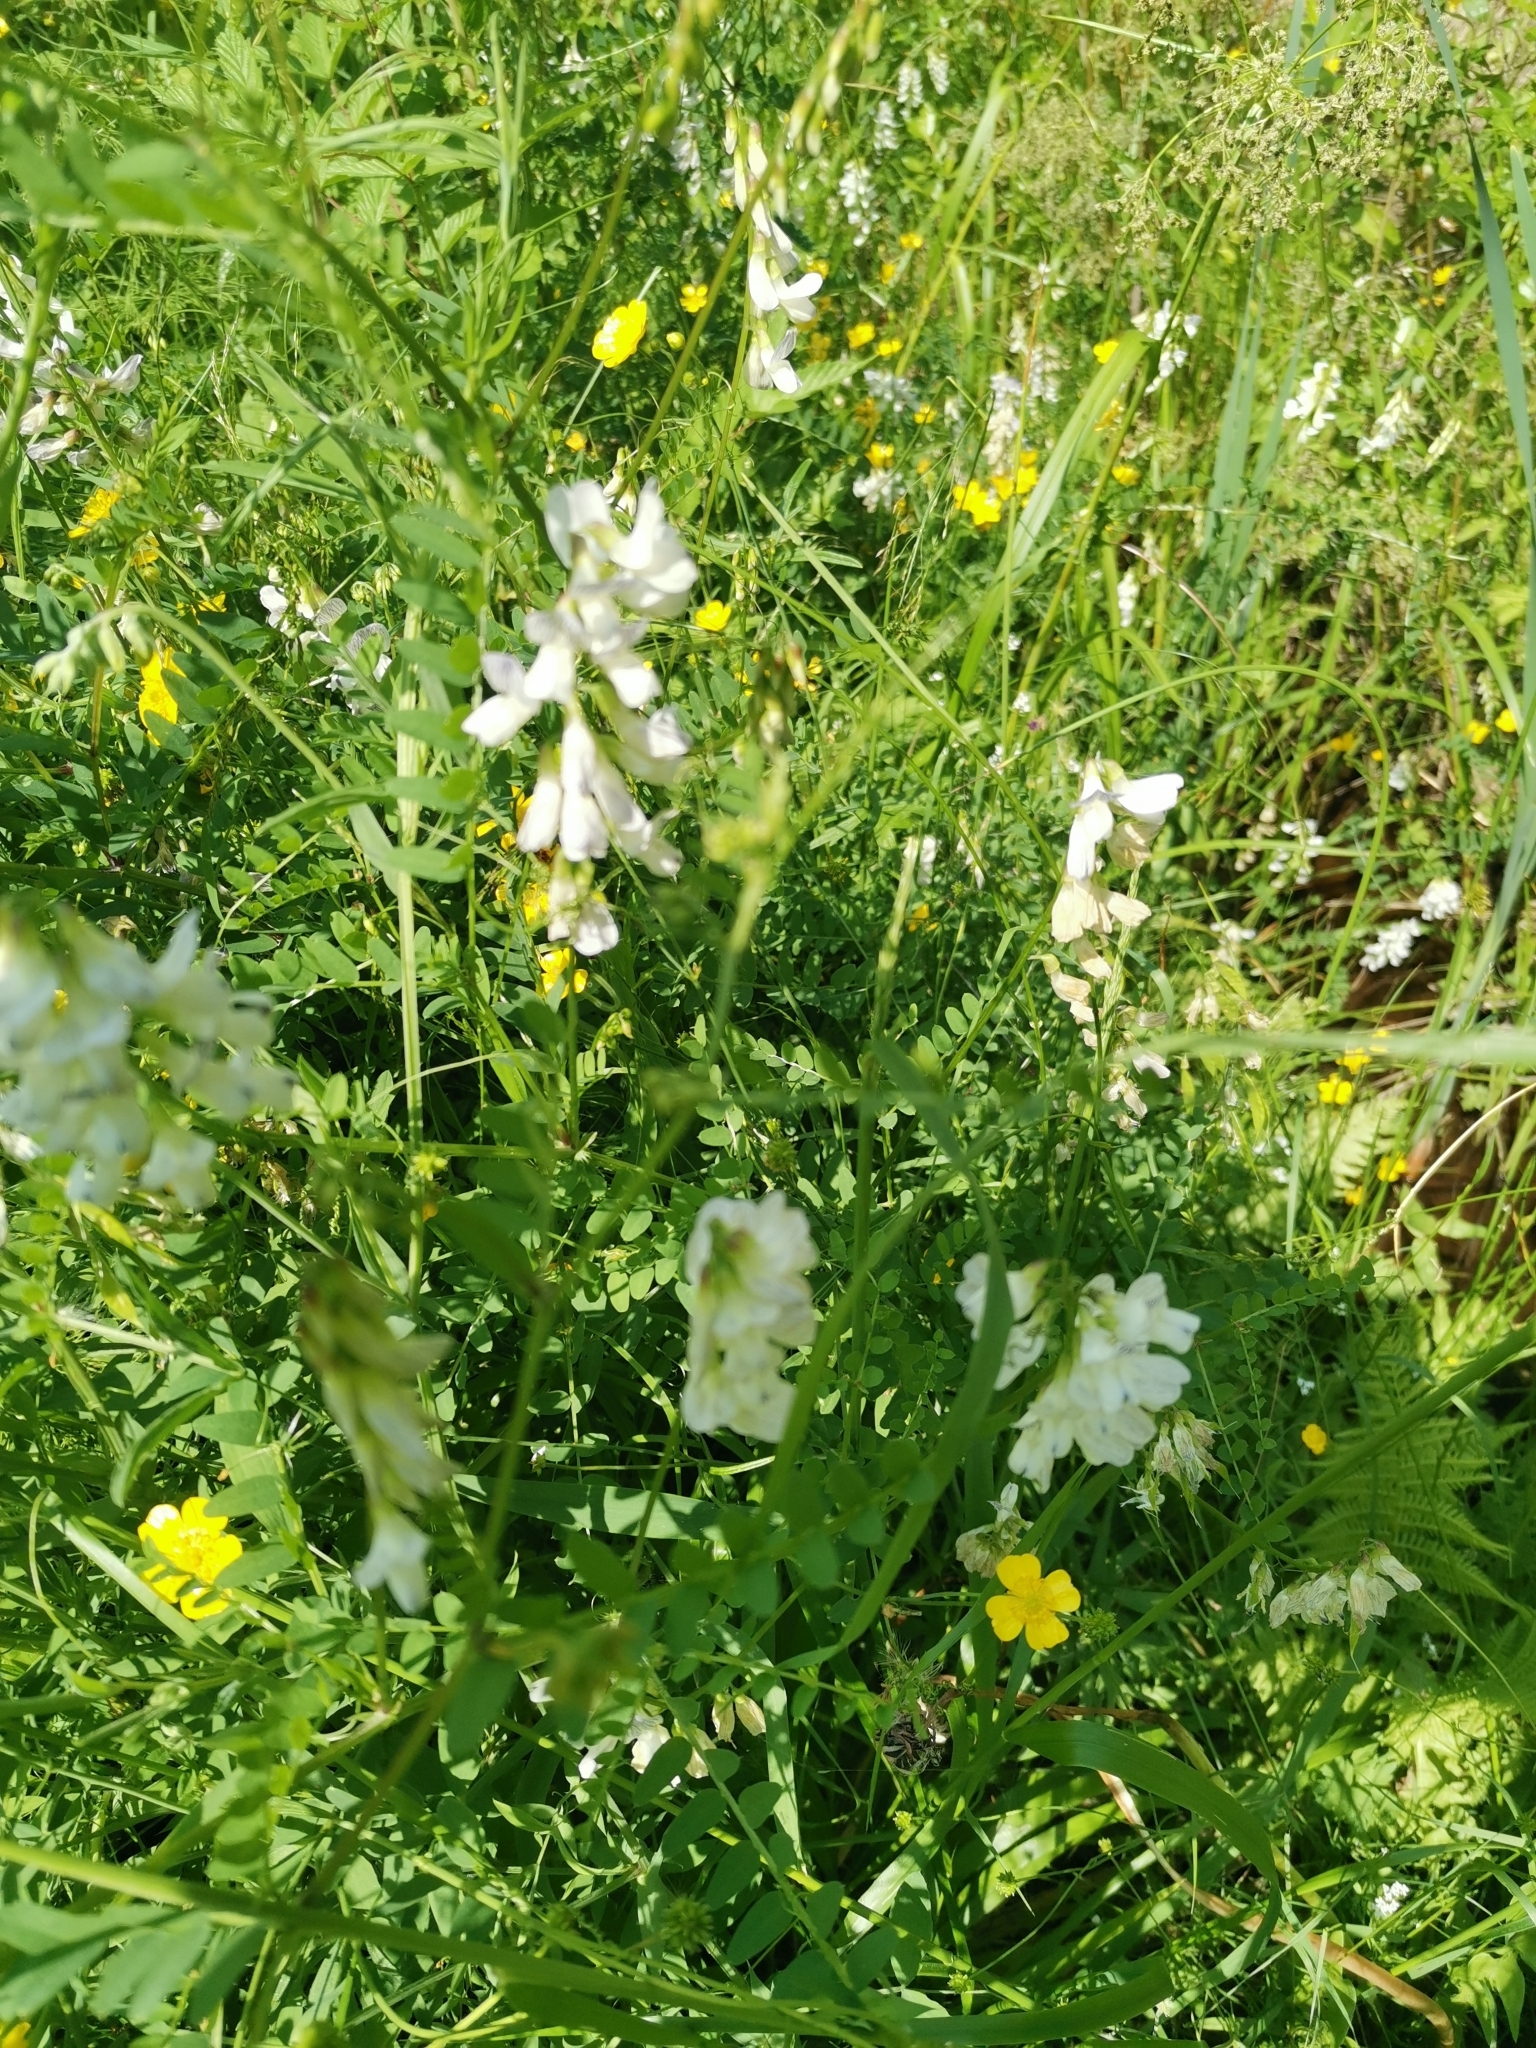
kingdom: Plantae
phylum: Tracheophyta
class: Magnoliopsida
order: Fabales
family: Fabaceae
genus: Vicia
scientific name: Vicia sylvatica
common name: Wood vetch
